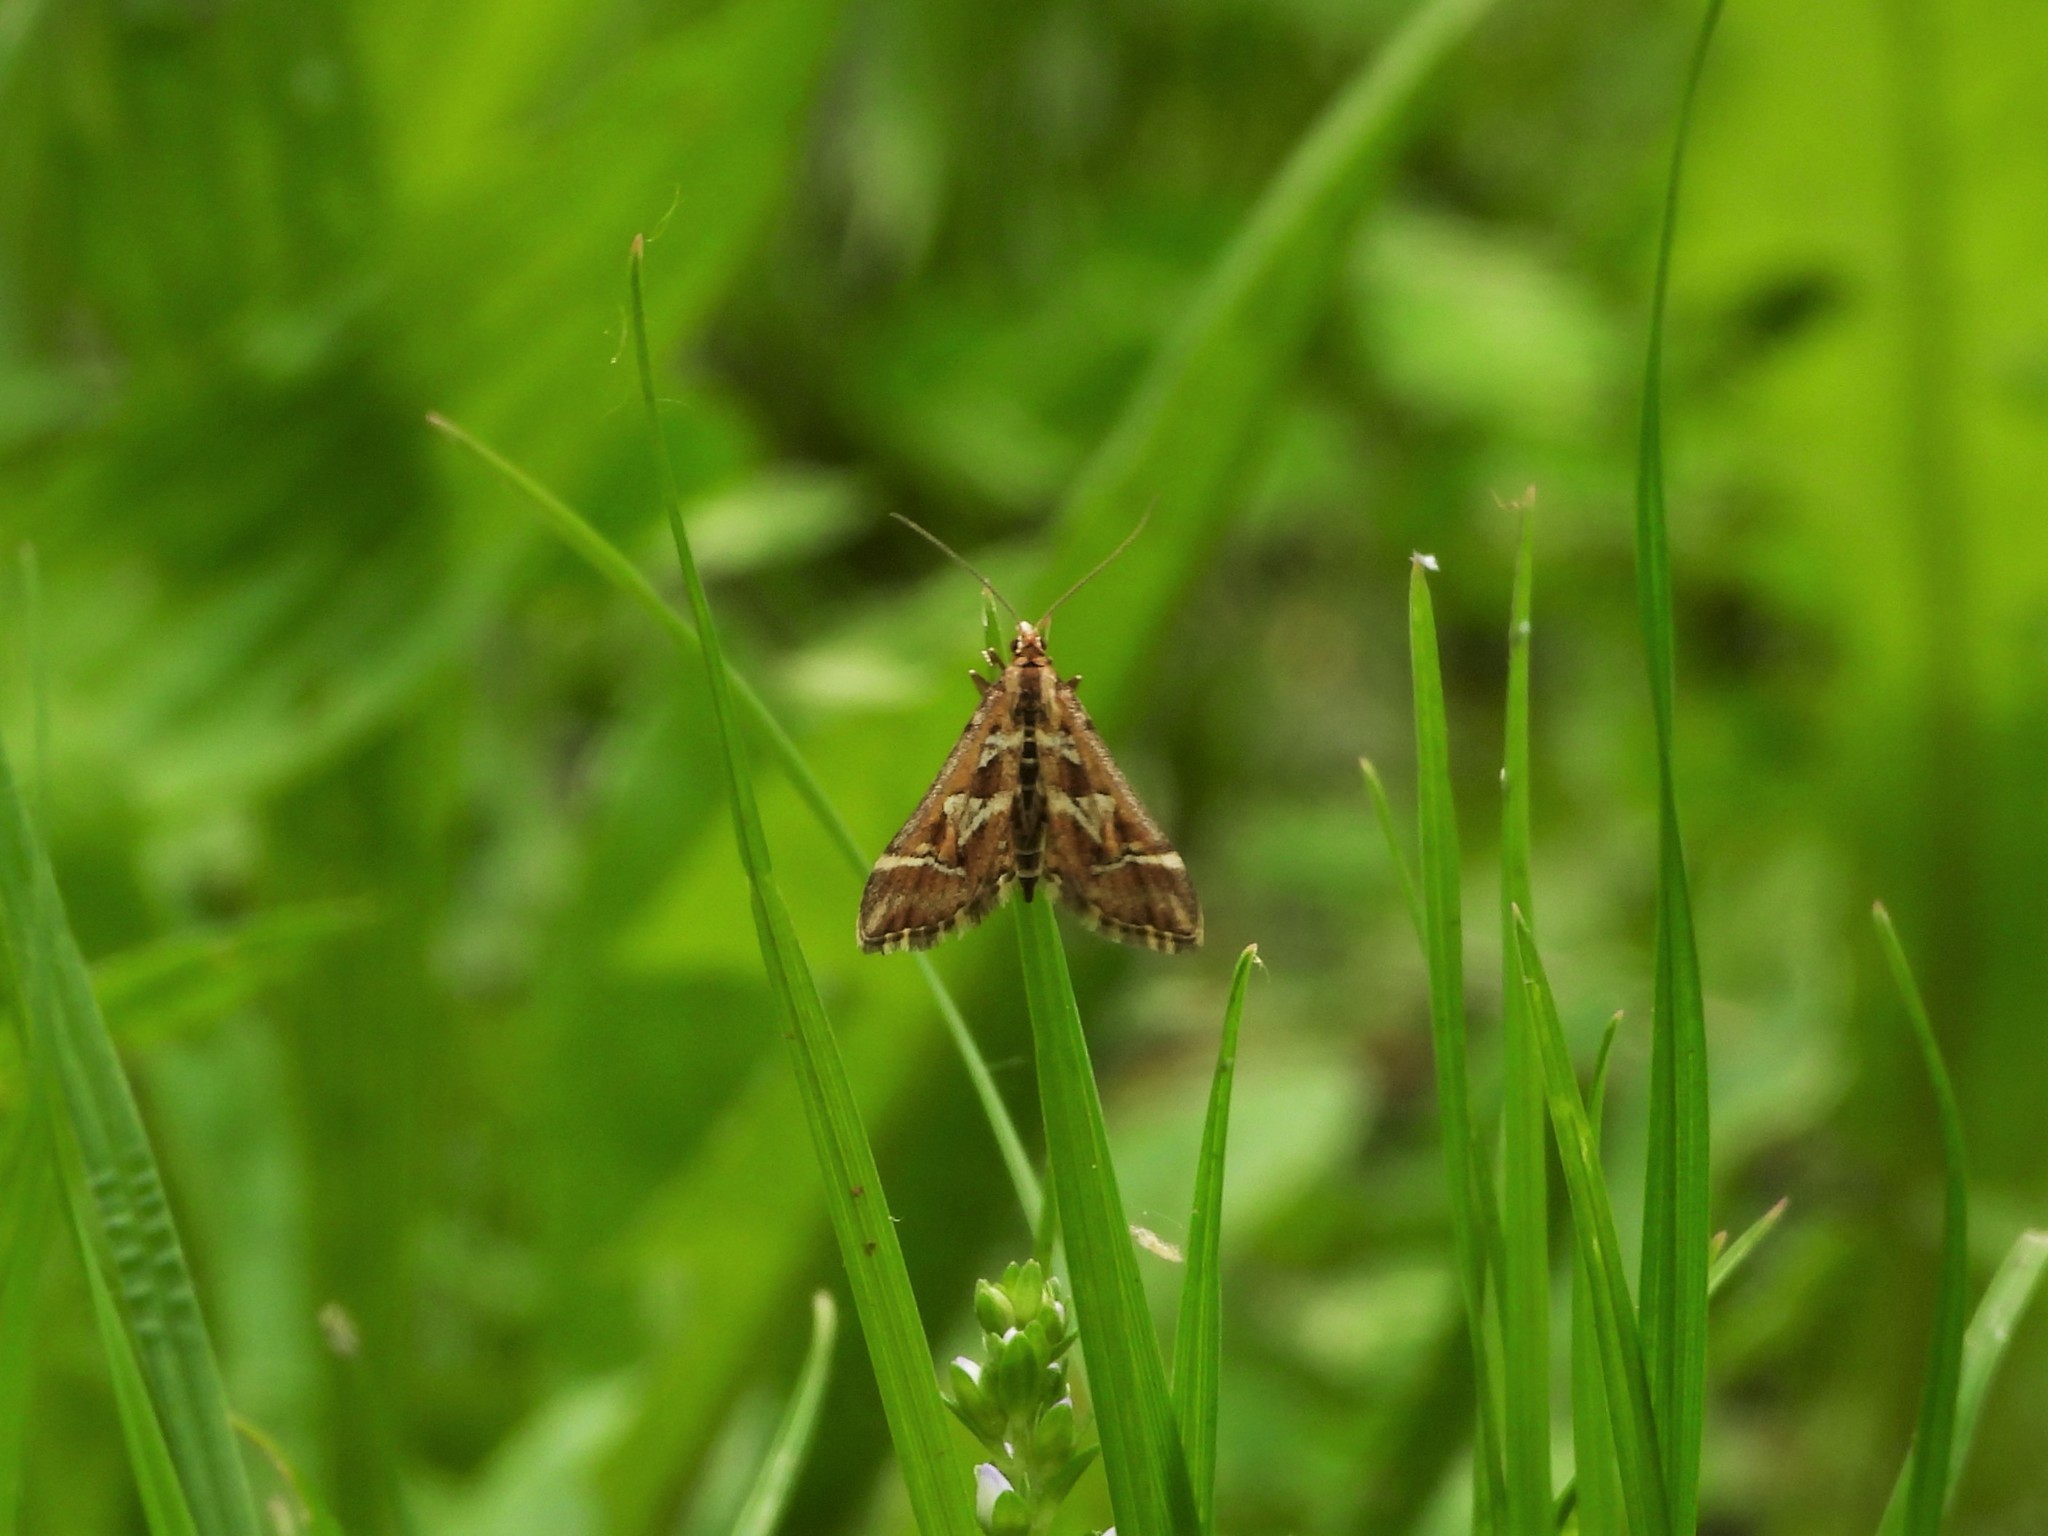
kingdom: Animalia
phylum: Arthropoda
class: Insecta
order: Lepidoptera
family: Crambidae
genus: Diasemia
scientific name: Diasemia reticularis
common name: Lettered china-mark
